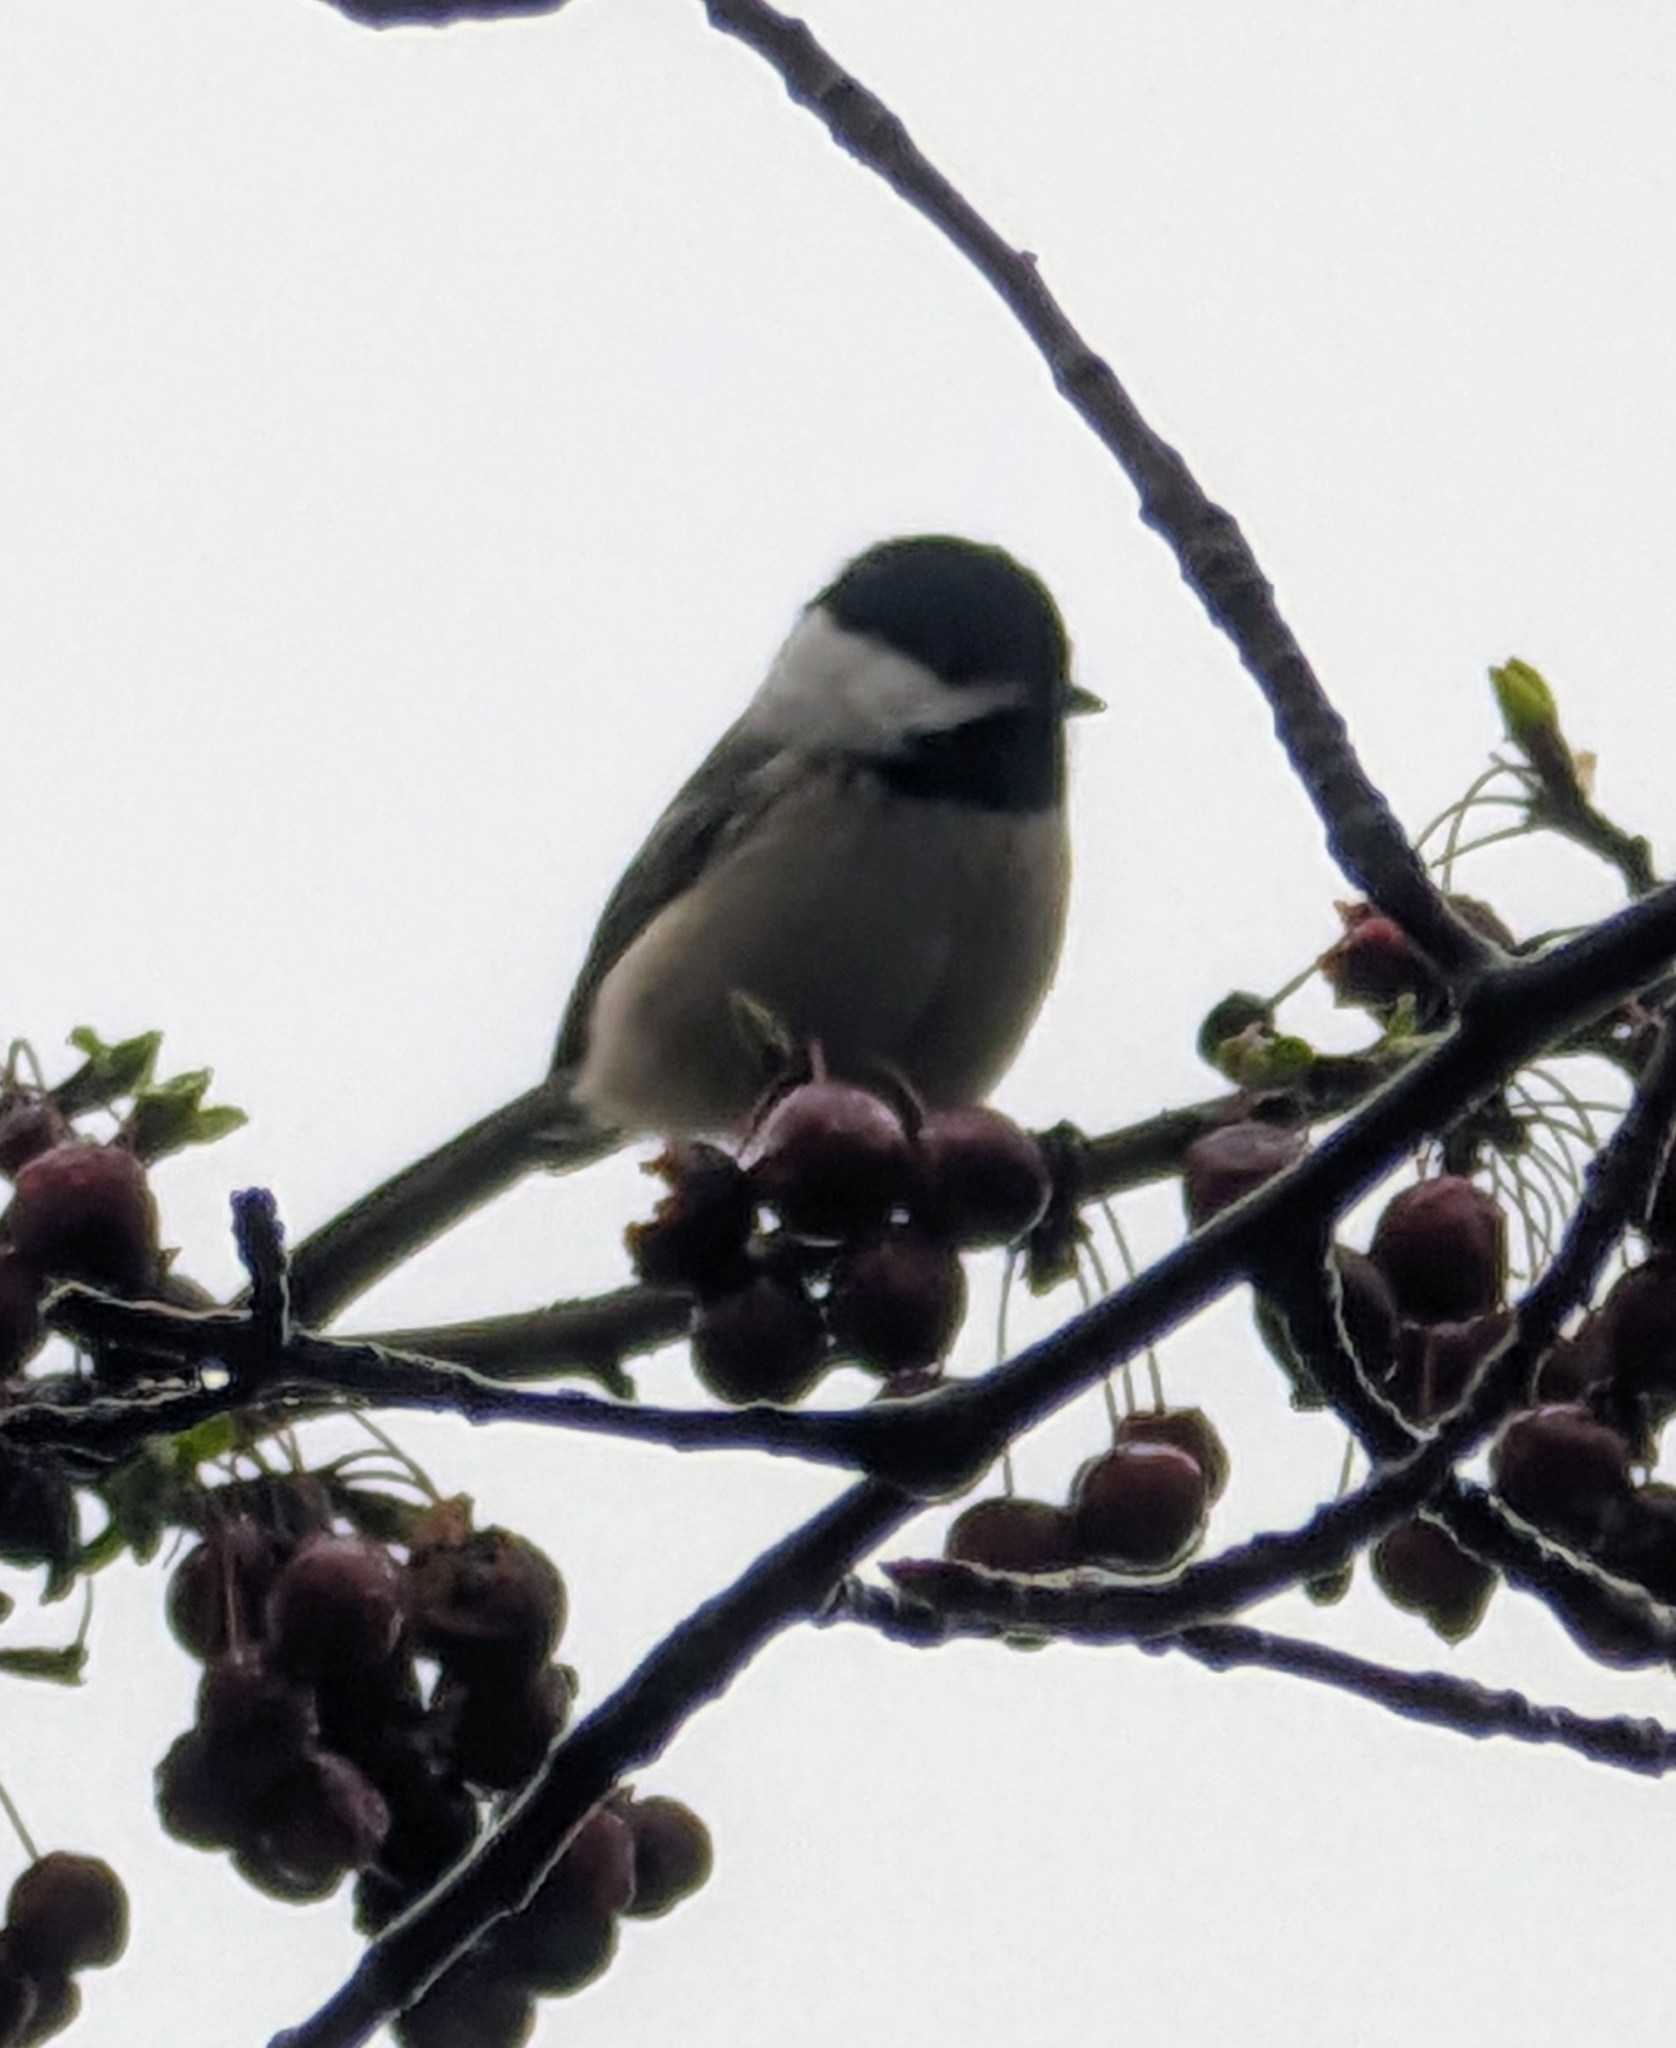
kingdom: Animalia
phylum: Chordata
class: Aves
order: Passeriformes
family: Paridae
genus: Poecile
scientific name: Poecile atricapillus
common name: Black-capped chickadee
